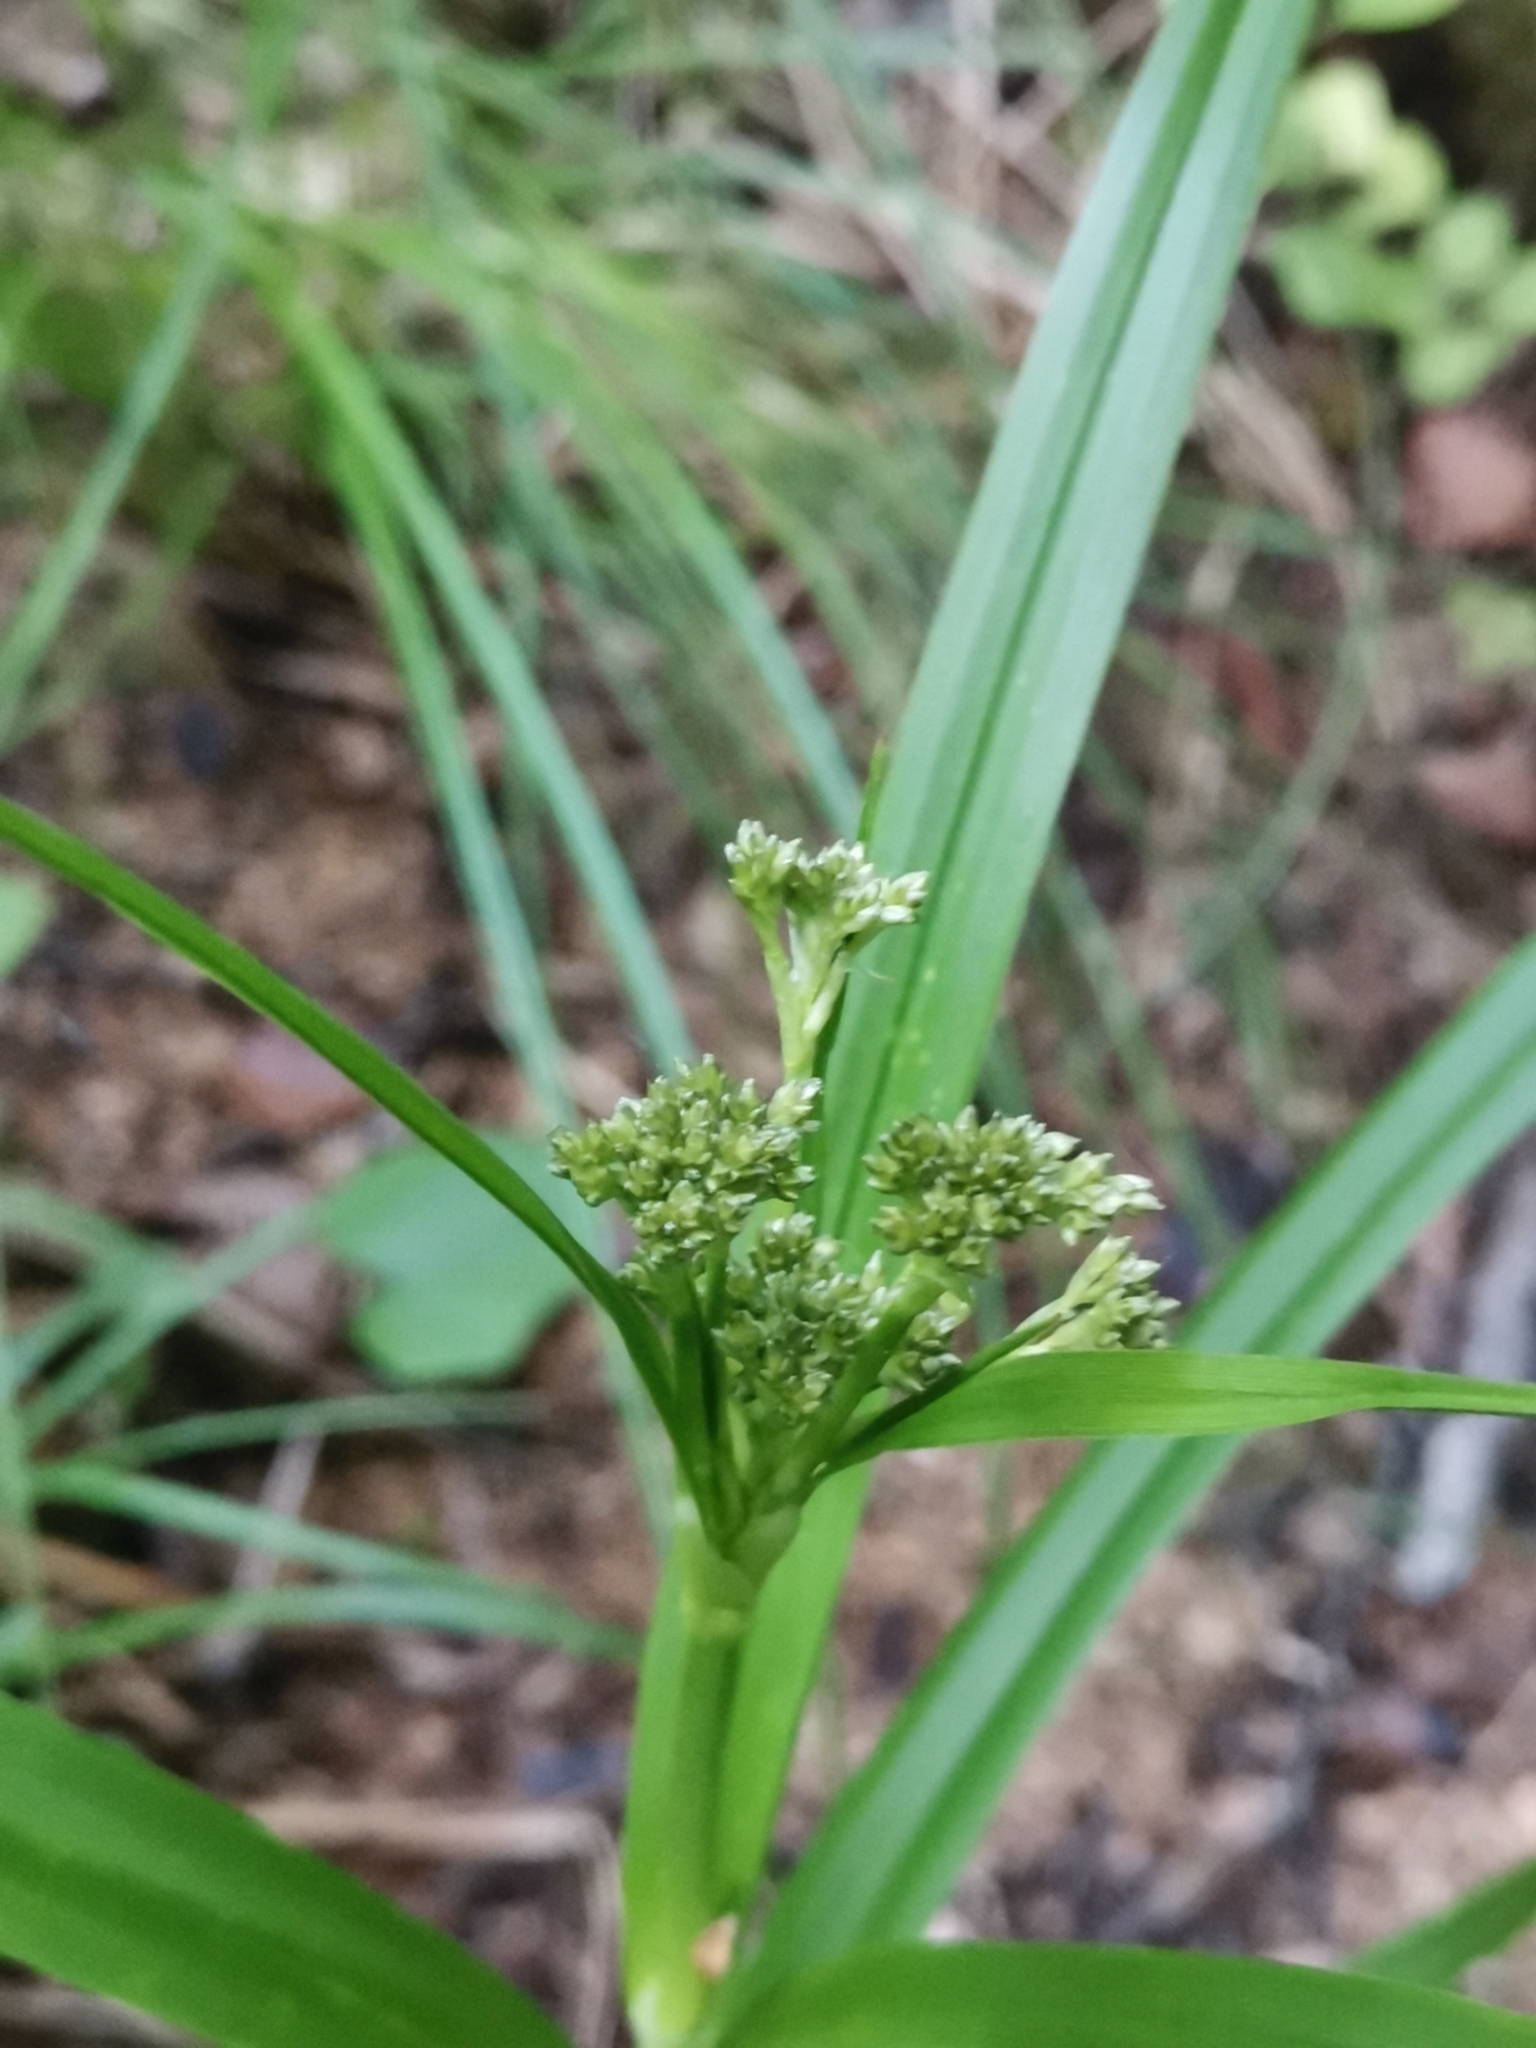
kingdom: Plantae
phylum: Tracheophyta
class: Liliopsida
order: Poales
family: Cyperaceae
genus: Scirpus
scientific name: Scirpus sylvaticus
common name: Wood club-rush
